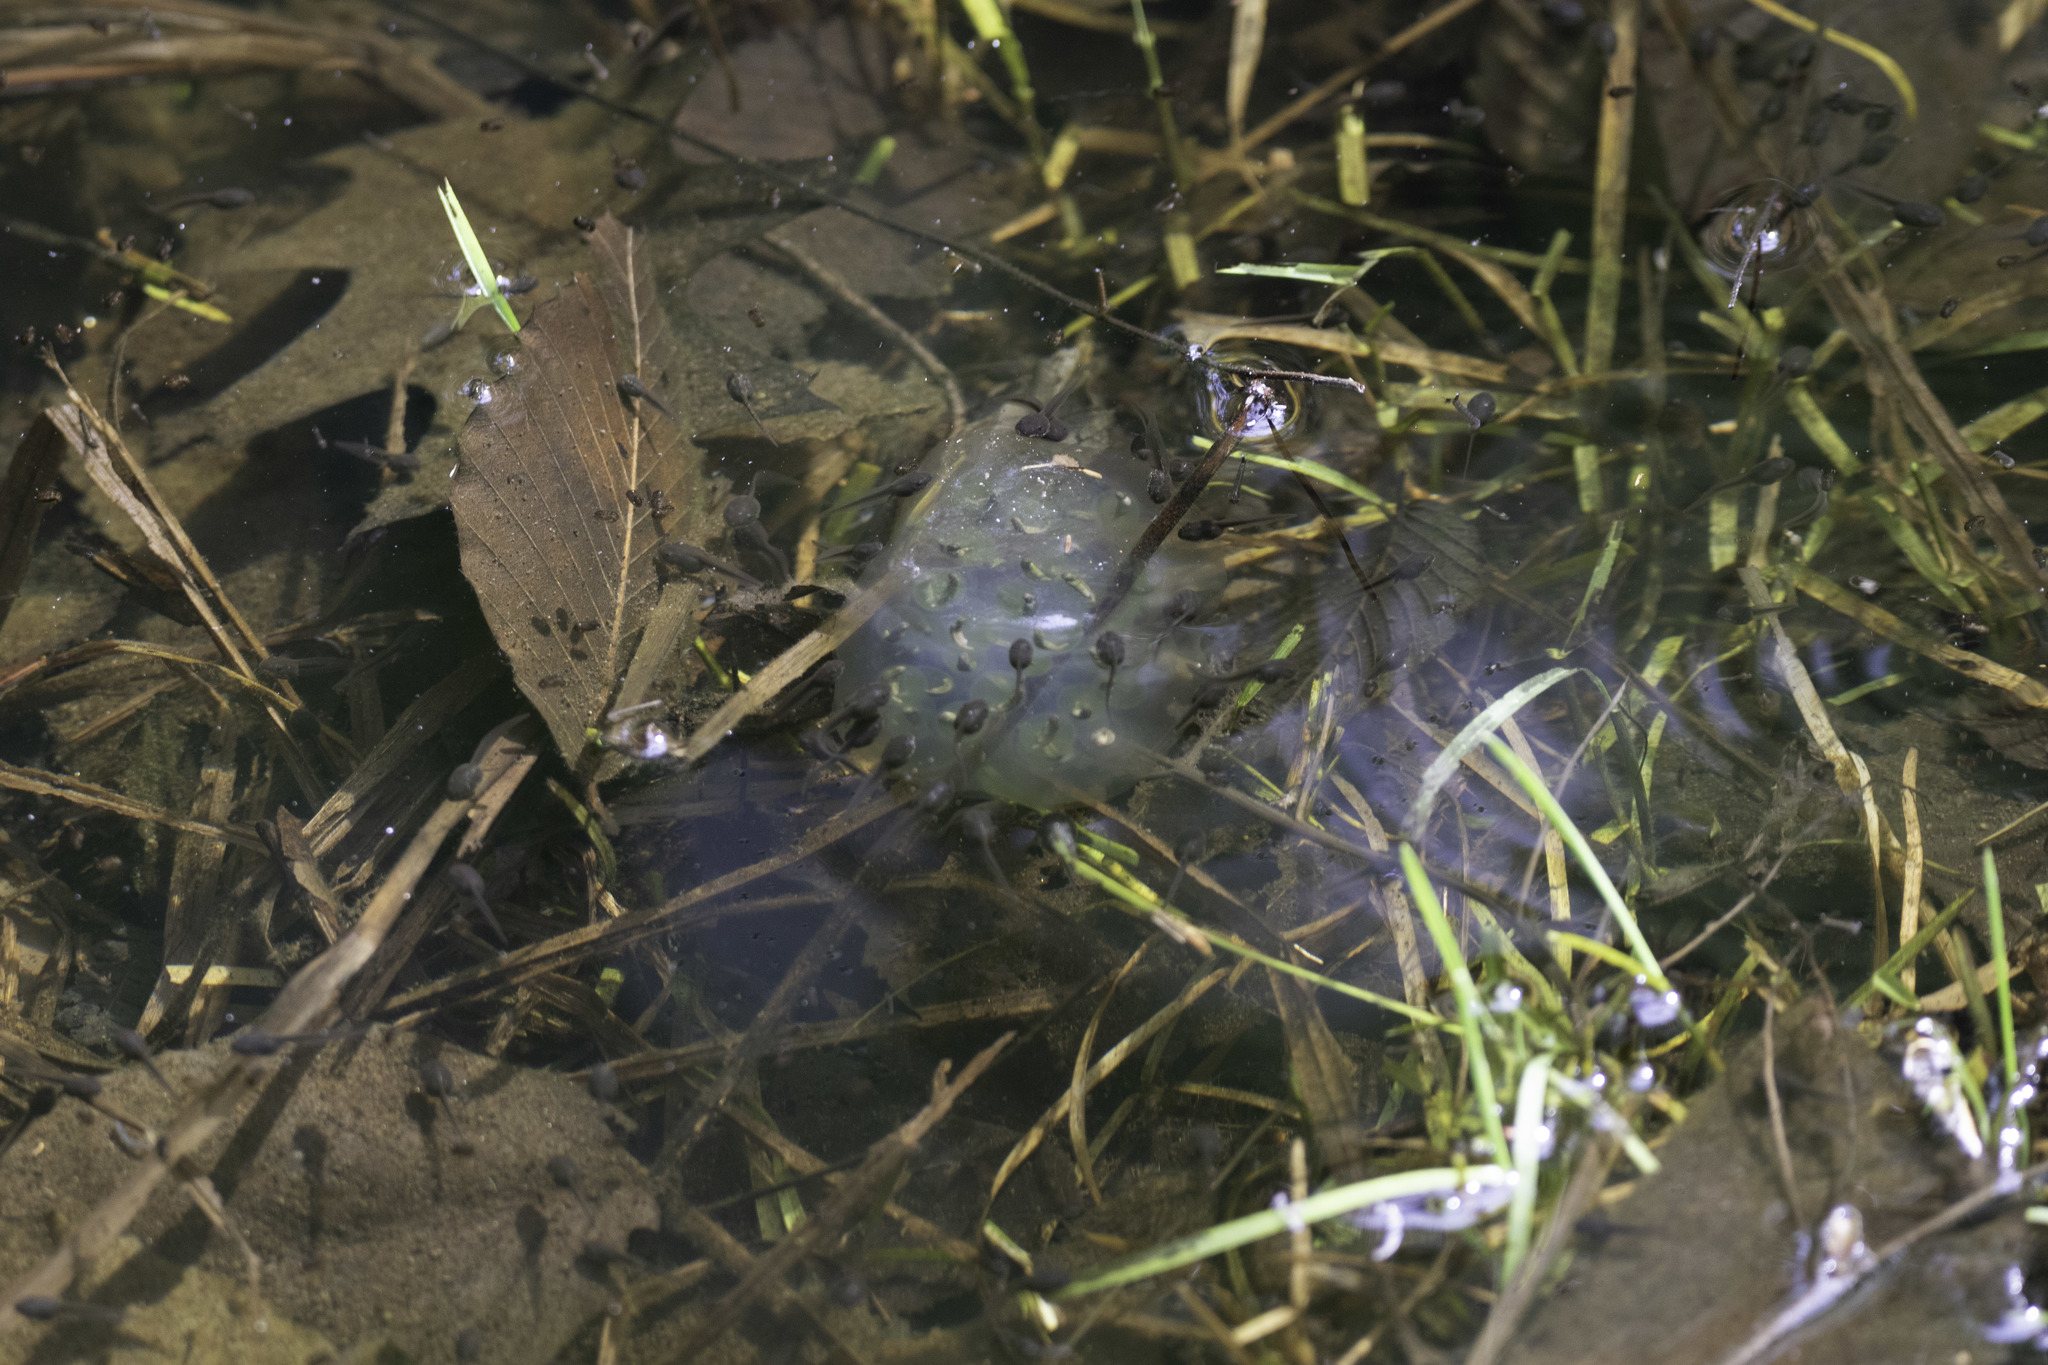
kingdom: Animalia
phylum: Chordata
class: Amphibia
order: Caudata
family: Ambystomatidae
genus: Ambystoma
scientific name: Ambystoma maculatum
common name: Spotted salamander
